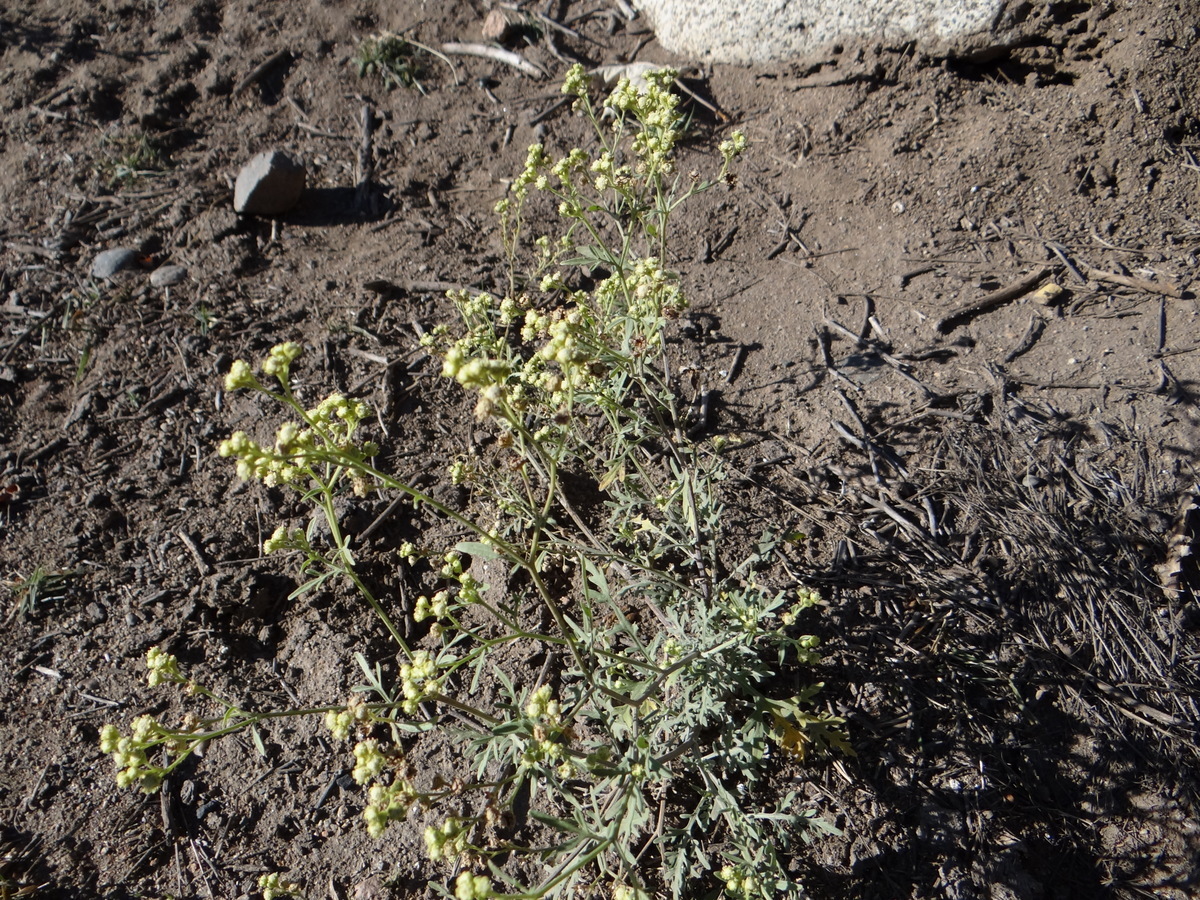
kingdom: Plantae
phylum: Tracheophyta
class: Magnoliopsida
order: Asterales
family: Asteraceae
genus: Parthenium
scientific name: Parthenium hysterophorus
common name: Santa maria feverfew
